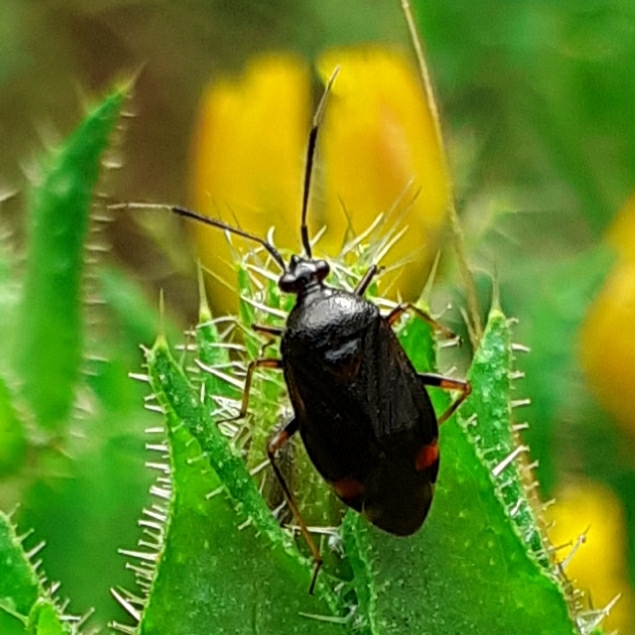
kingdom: Animalia
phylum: Arthropoda
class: Insecta
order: Hemiptera
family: Miridae
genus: Deraeocoris
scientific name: Deraeocoris ruber
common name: Plant bug
